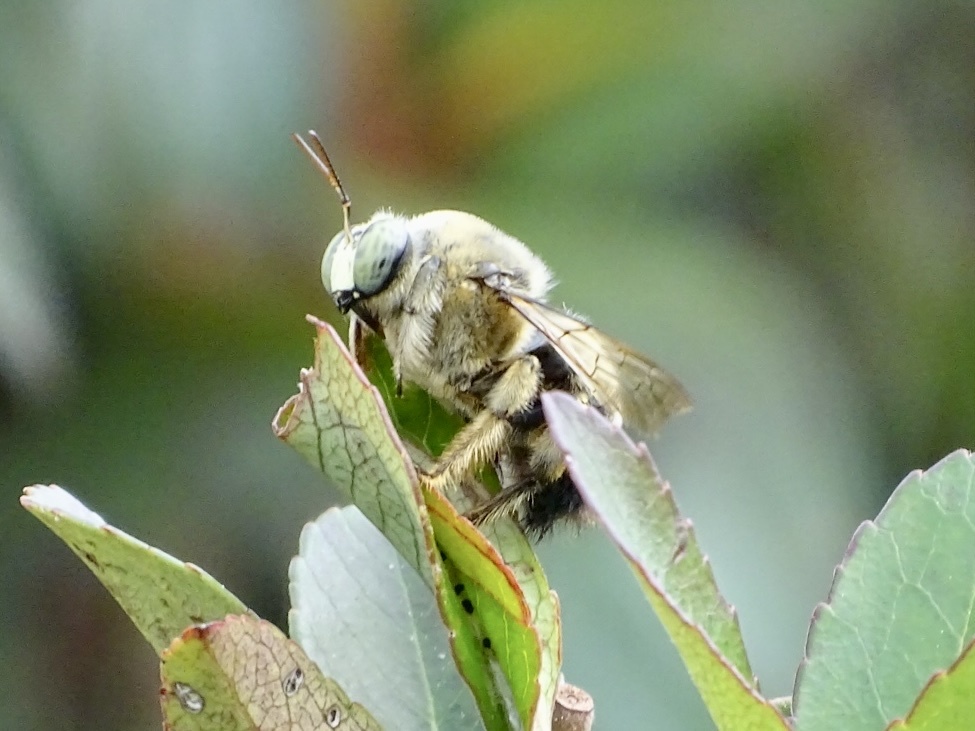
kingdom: Animalia
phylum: Arthropoda
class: Insecta
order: Hymenoptera
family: Apidae
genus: Xylocopa
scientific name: Xylocopa dejeanii
